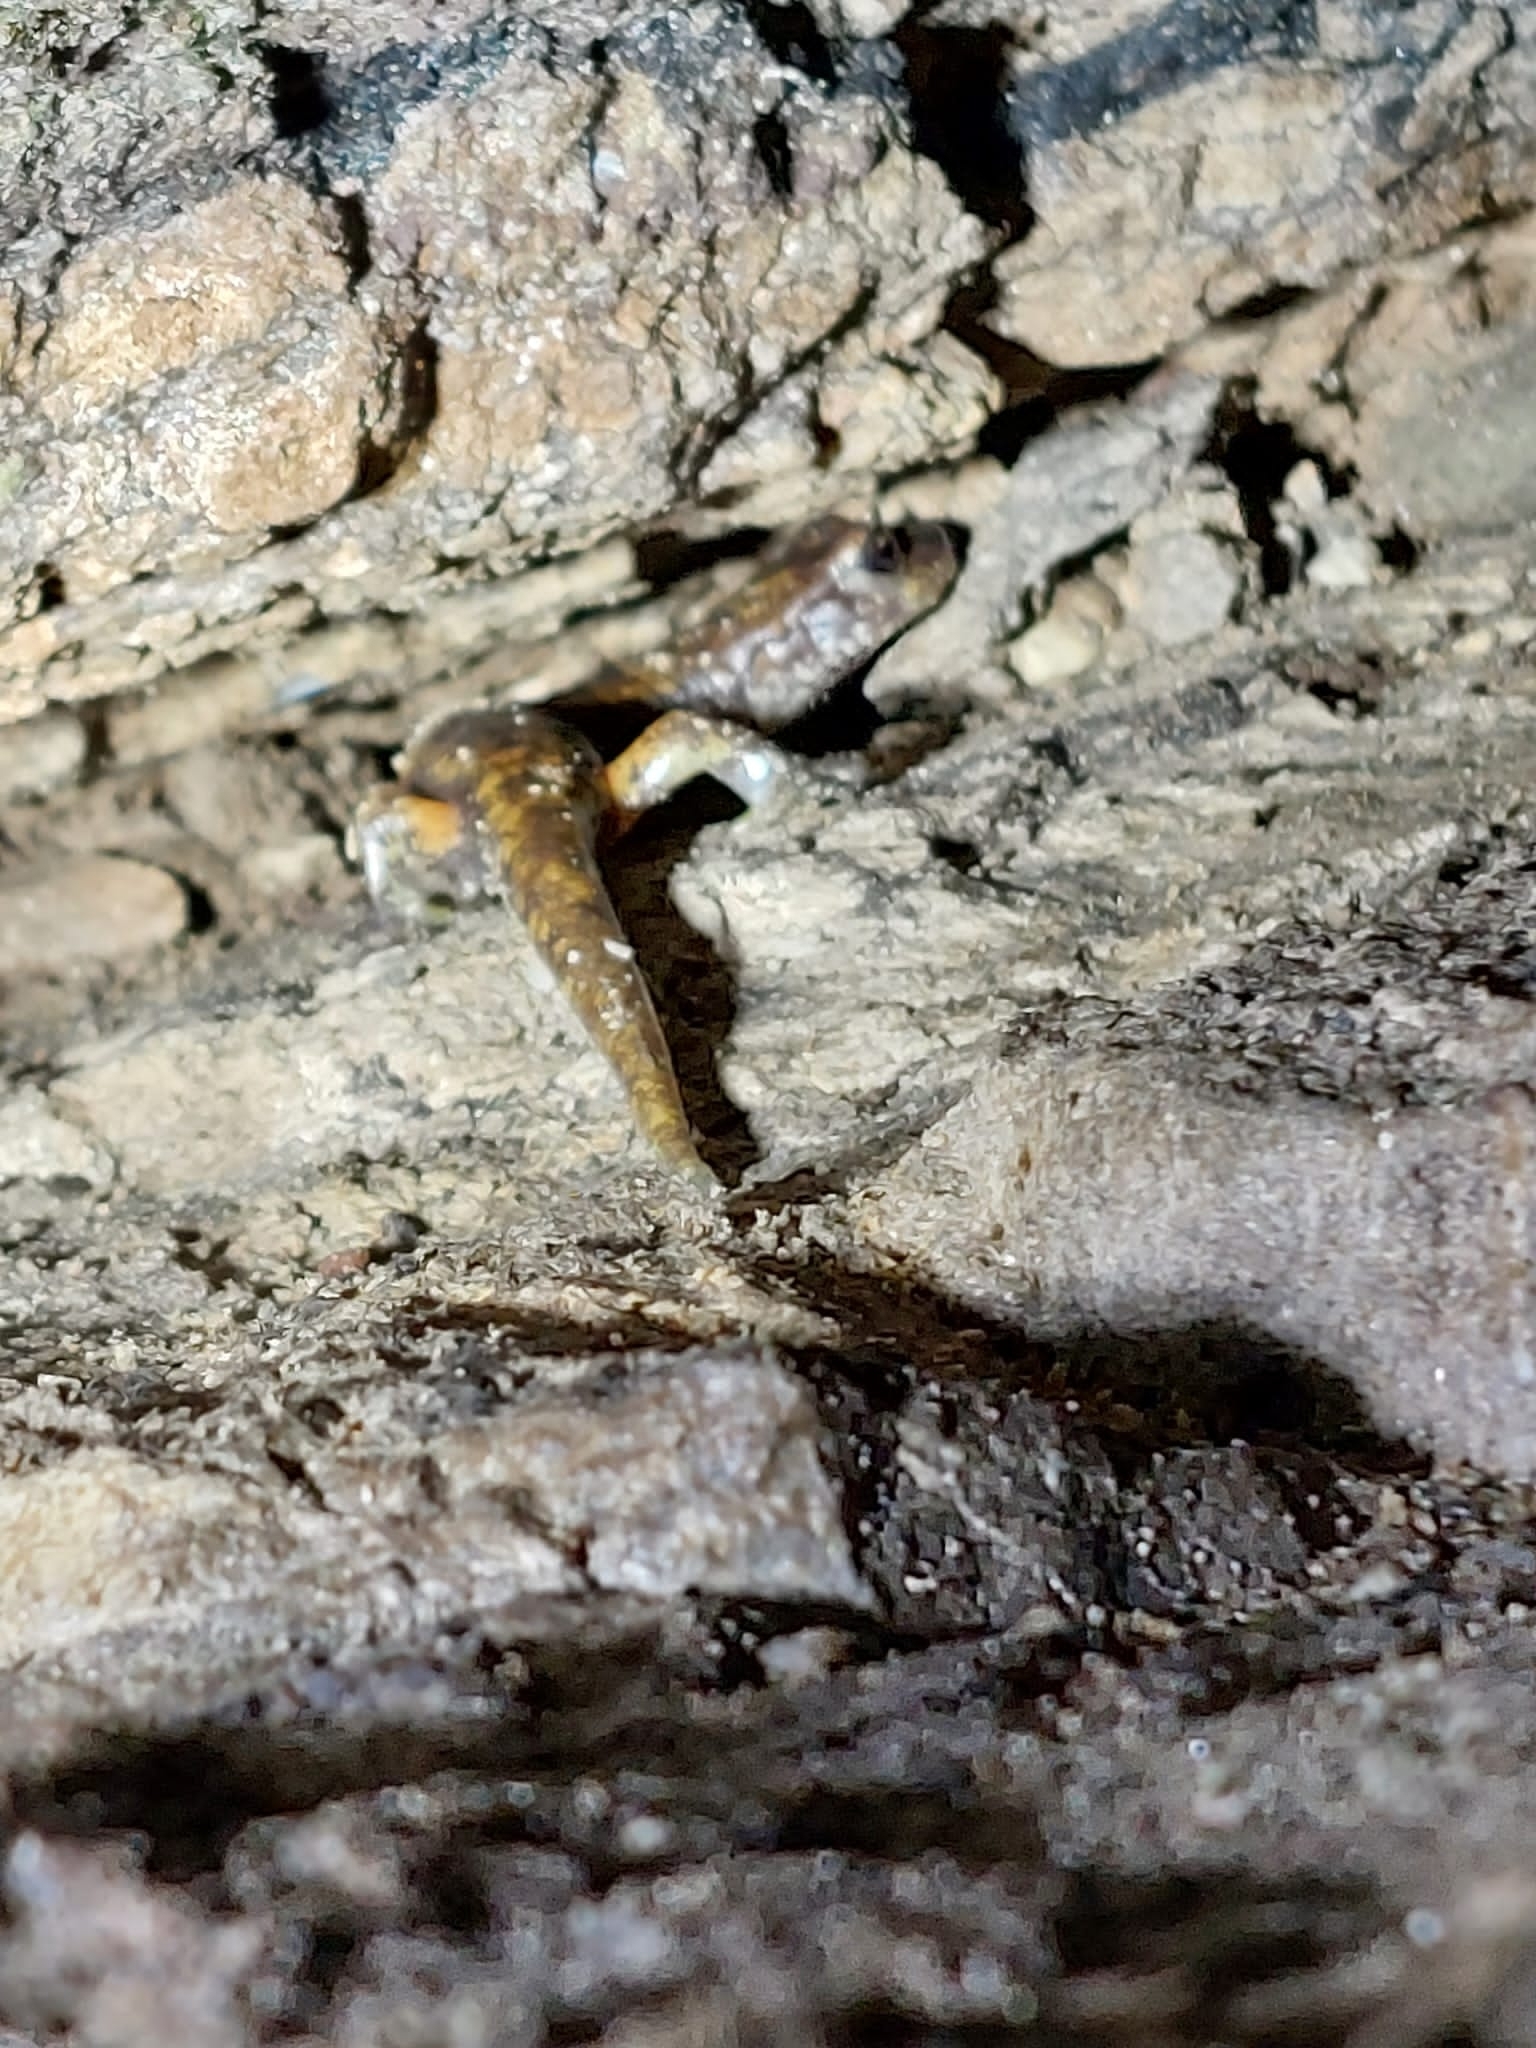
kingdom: Animalia
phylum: Chordata
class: Amphibia
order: Caudata
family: Plethodontidae
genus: Speleomantes
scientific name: Speleomantes italicus
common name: Italian cave salamander
